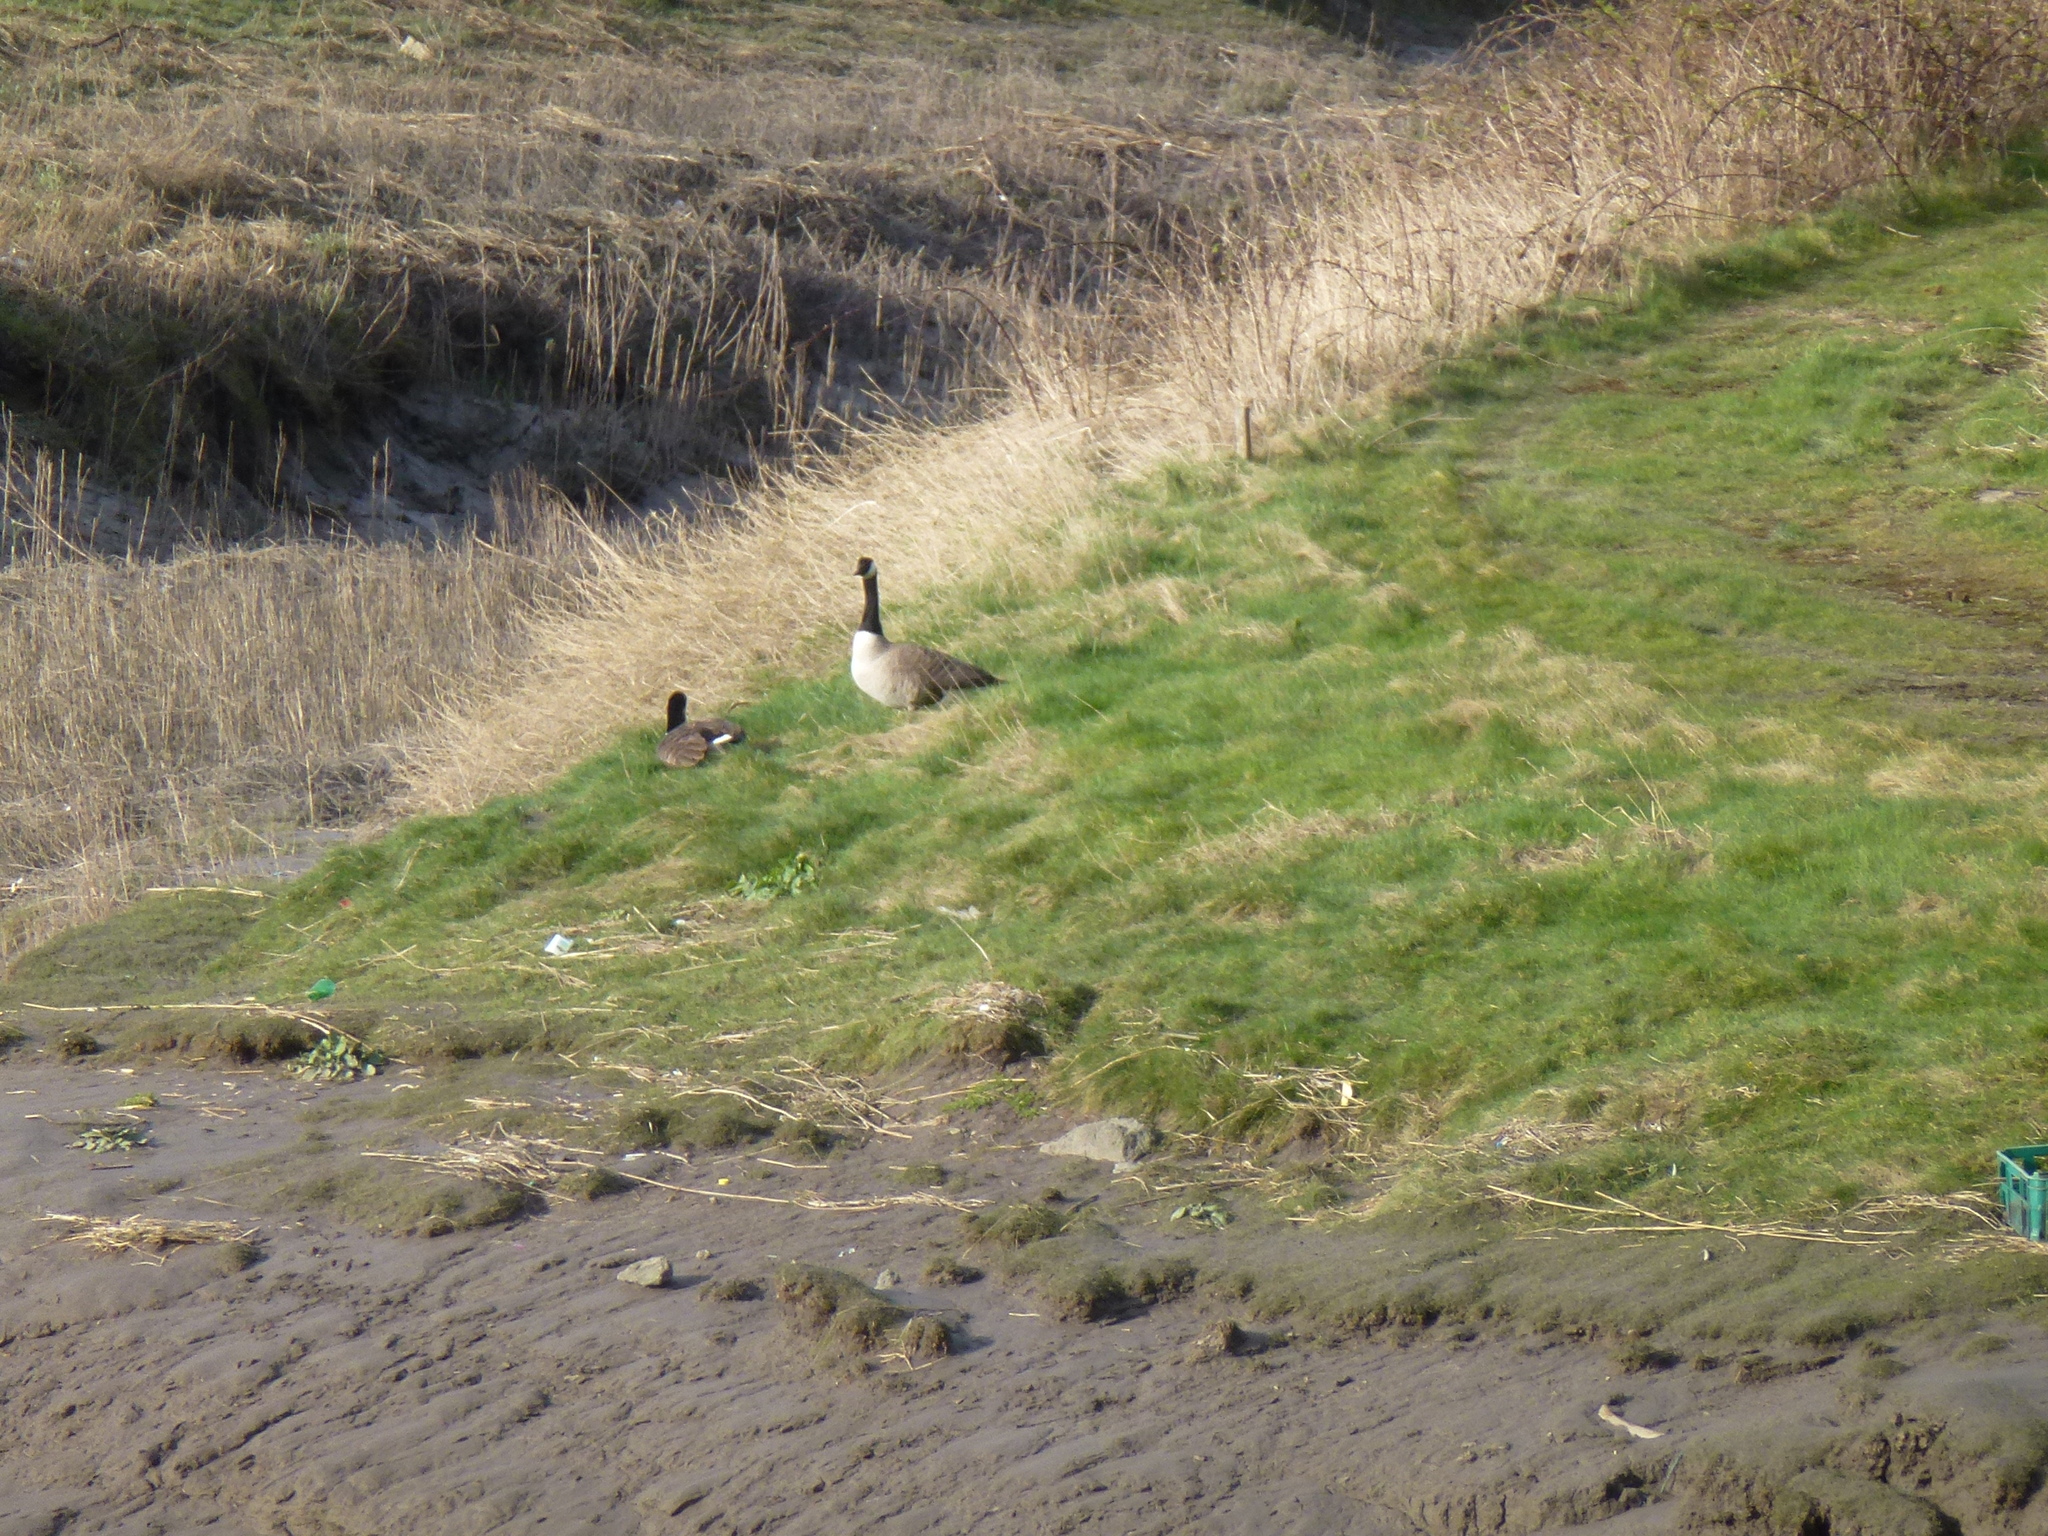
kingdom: Animalia
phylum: Chordata
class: Aves
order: Anseriformes
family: Anatidae
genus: Branta
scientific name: Branta canadensis
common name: Canada goose
